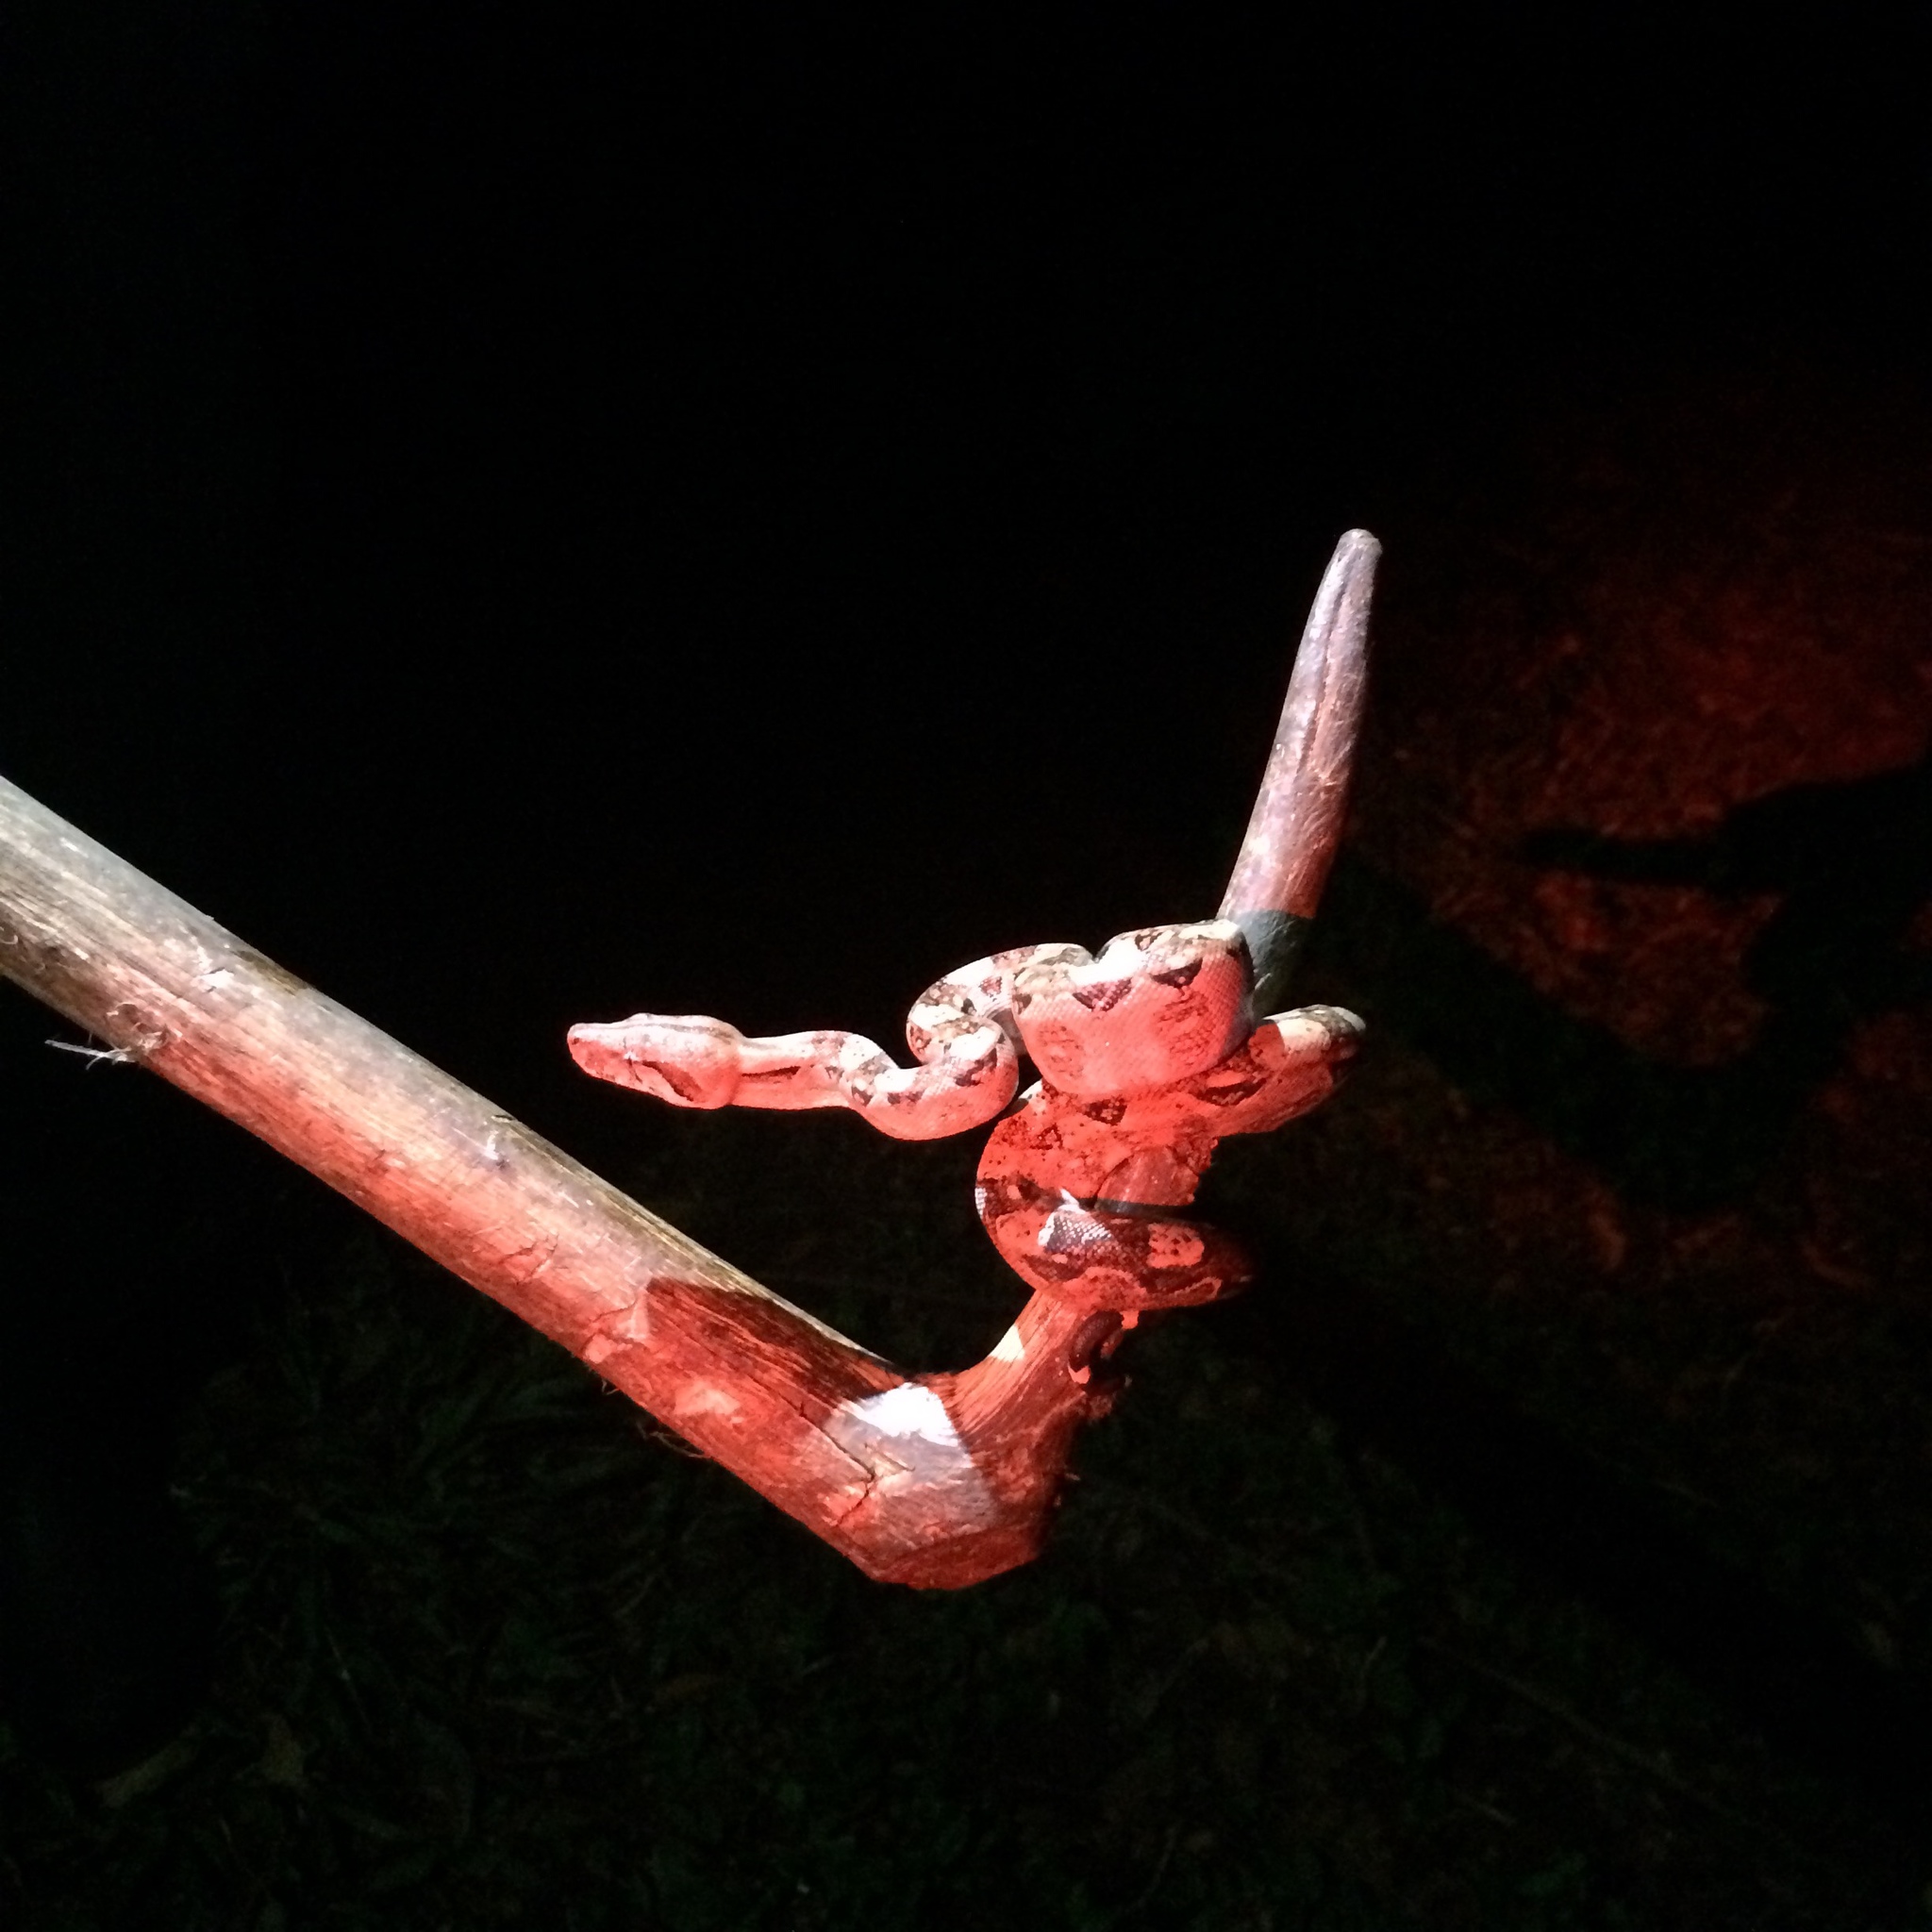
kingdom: Animalia
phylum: Chordata
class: Squamata
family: Boidae
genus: Boa
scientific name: Boa imperator
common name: Central american boa
